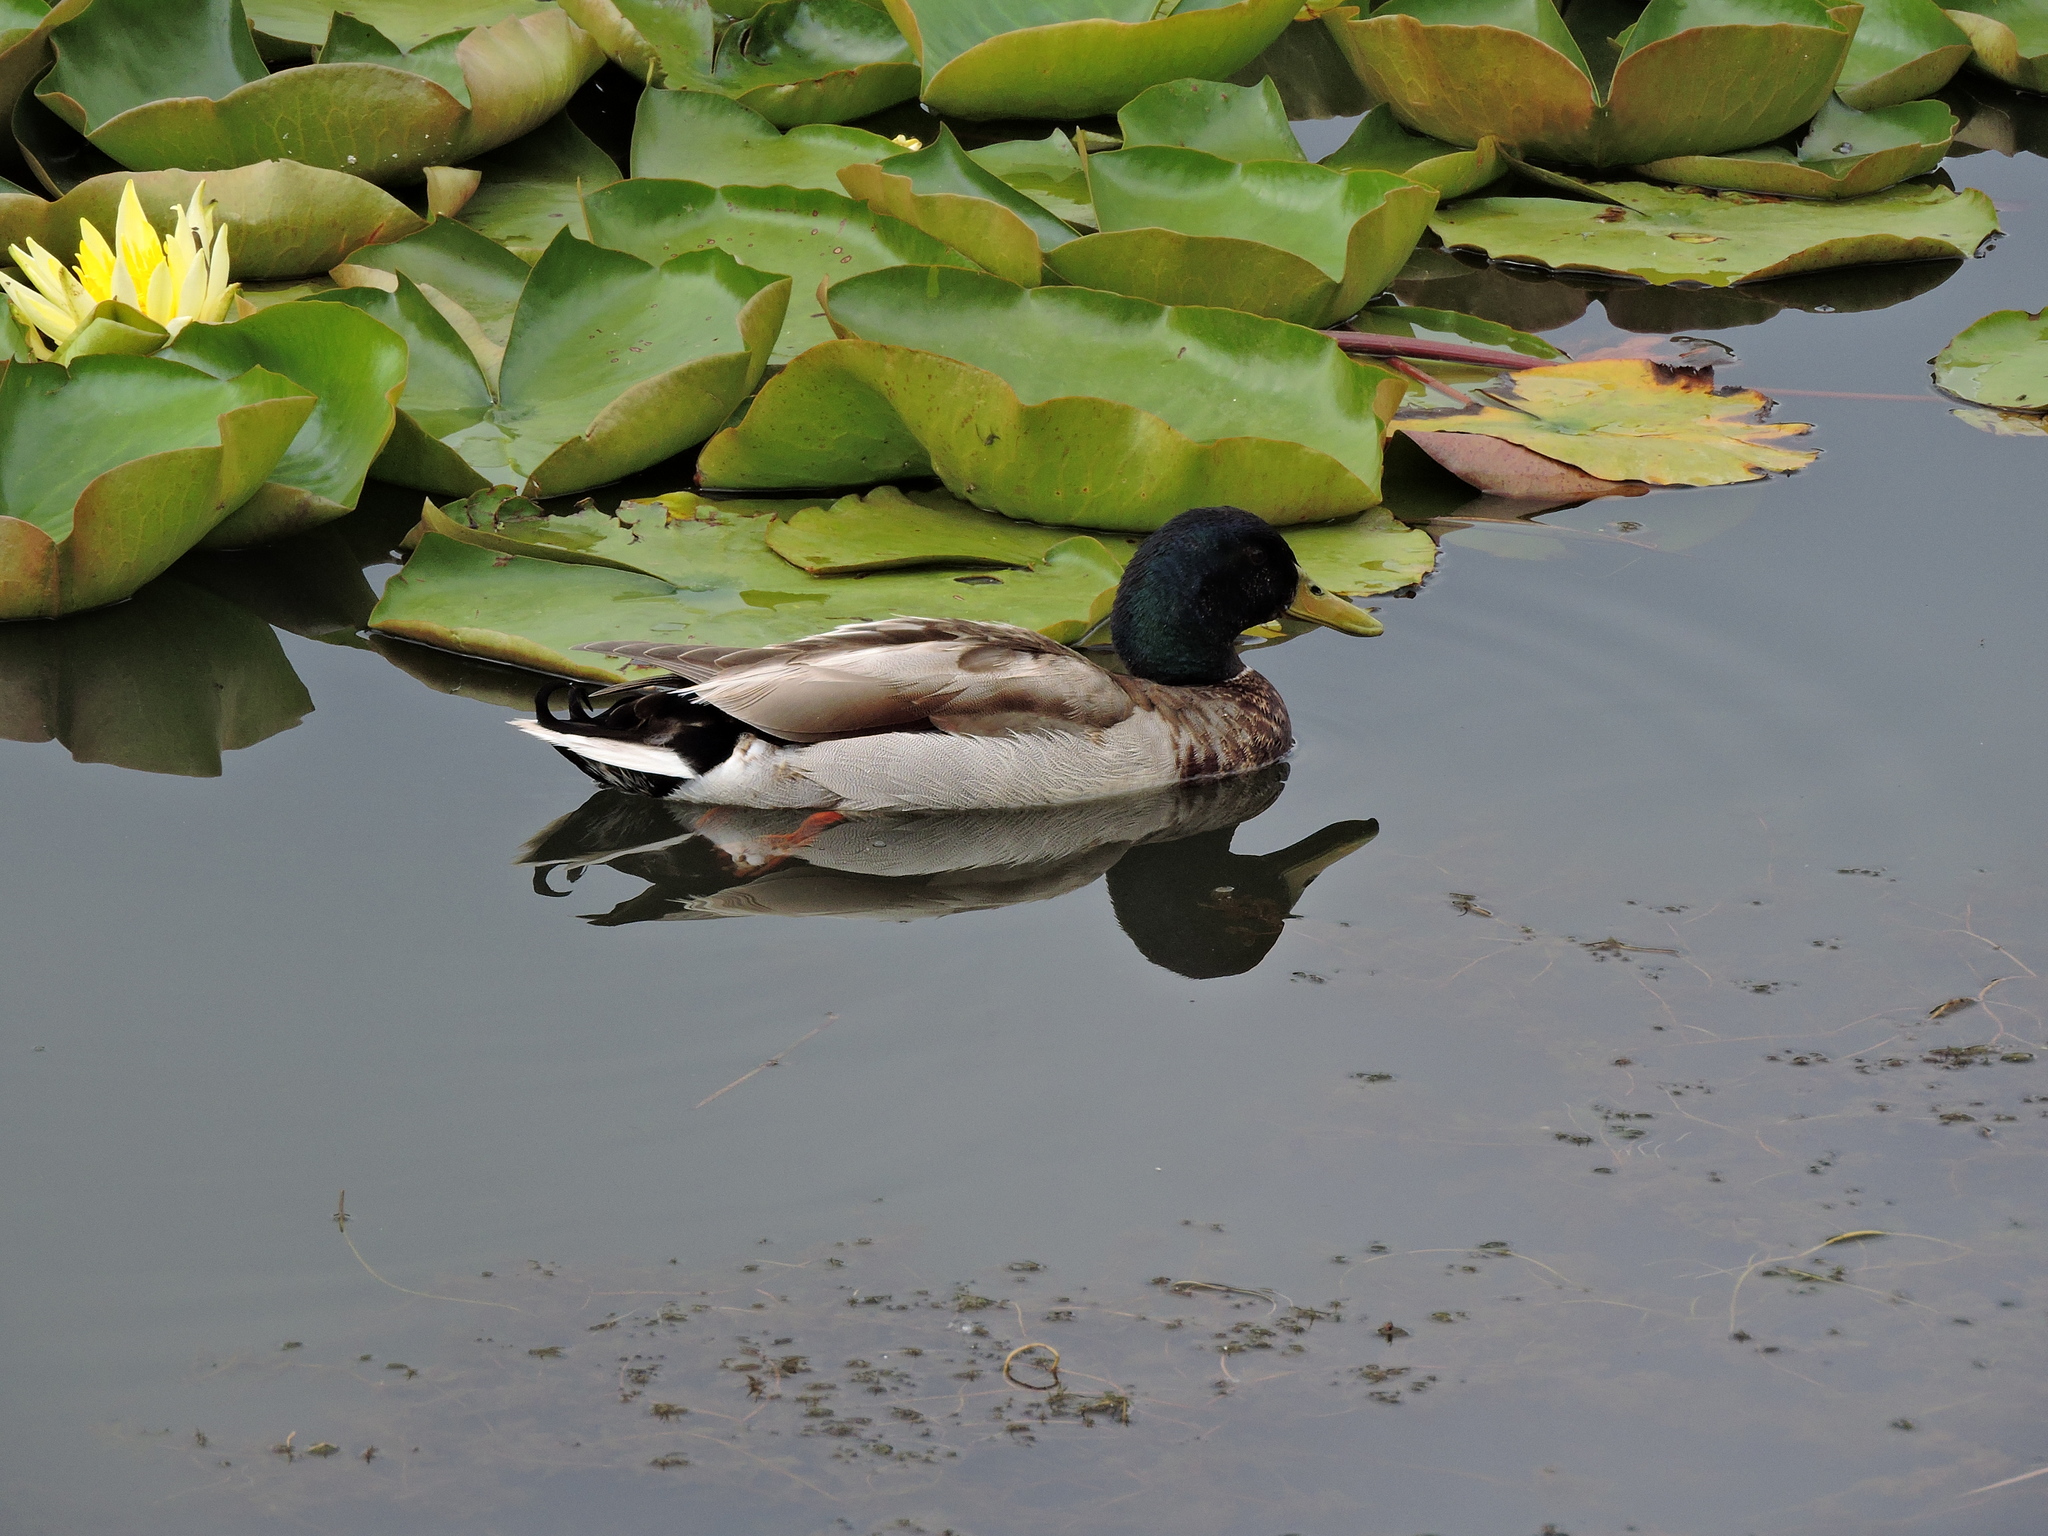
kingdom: Animalia
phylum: Chordata
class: Aves
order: Anseriformes
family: Anatidae
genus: Anas
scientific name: Anas platyrhynchos
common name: Mallard
